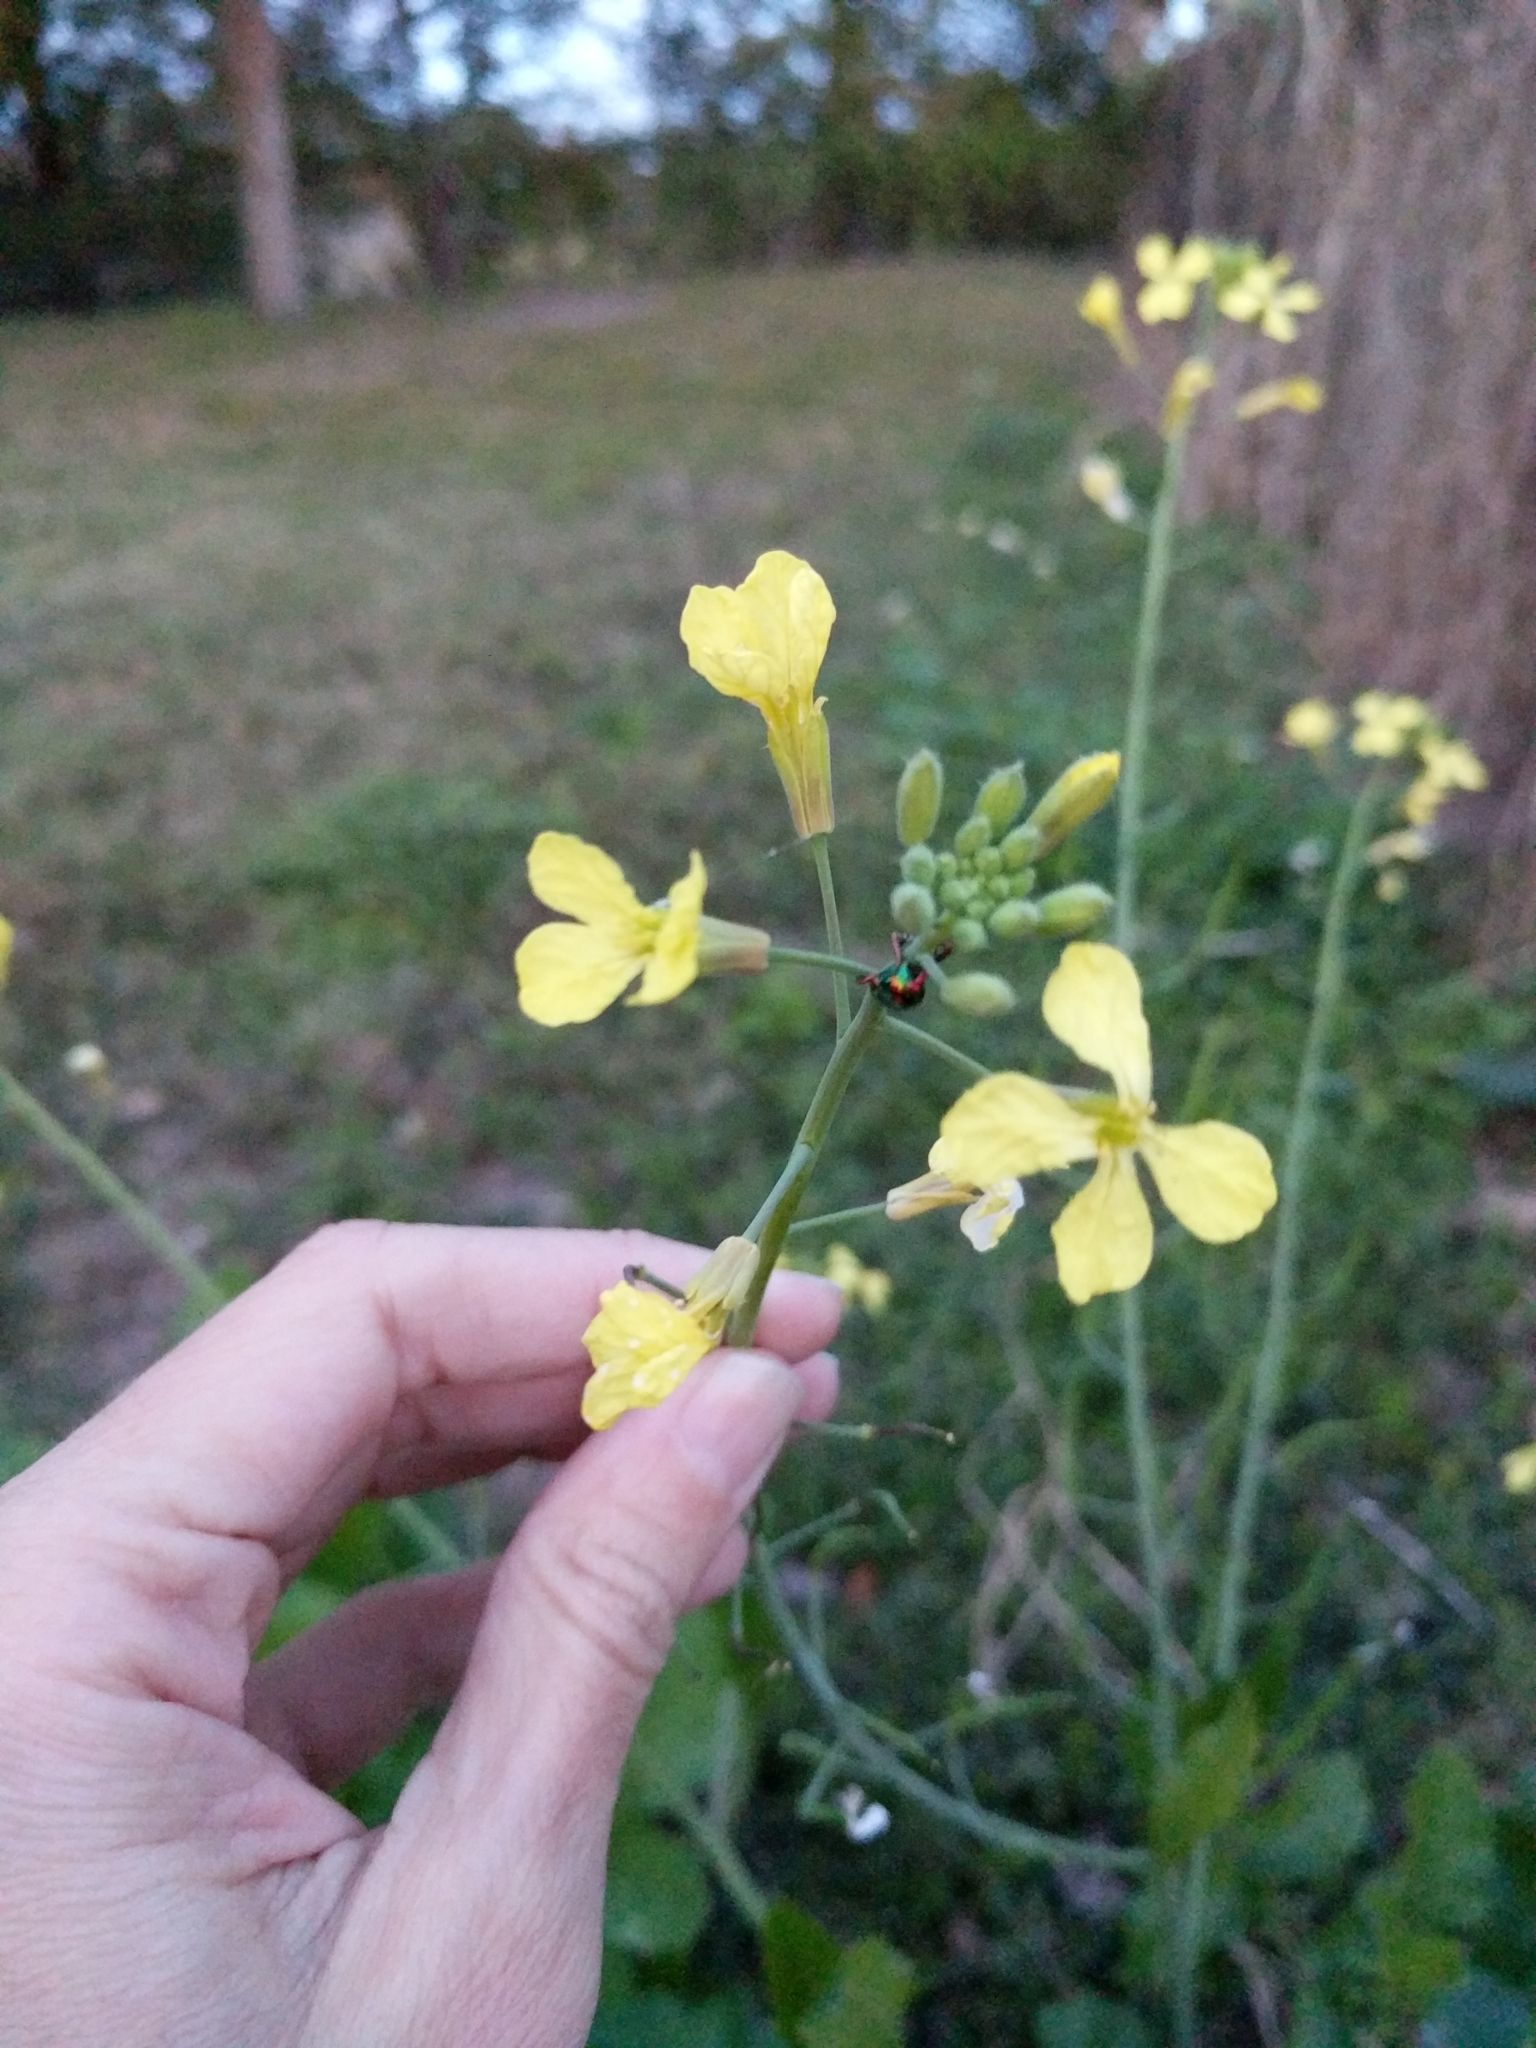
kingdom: Plantae
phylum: Tracheophyta
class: Magnoliopsida
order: Brassicales
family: Brassicaceae
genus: Raphanus
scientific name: Raphanus raphanistrum
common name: Wild radish
